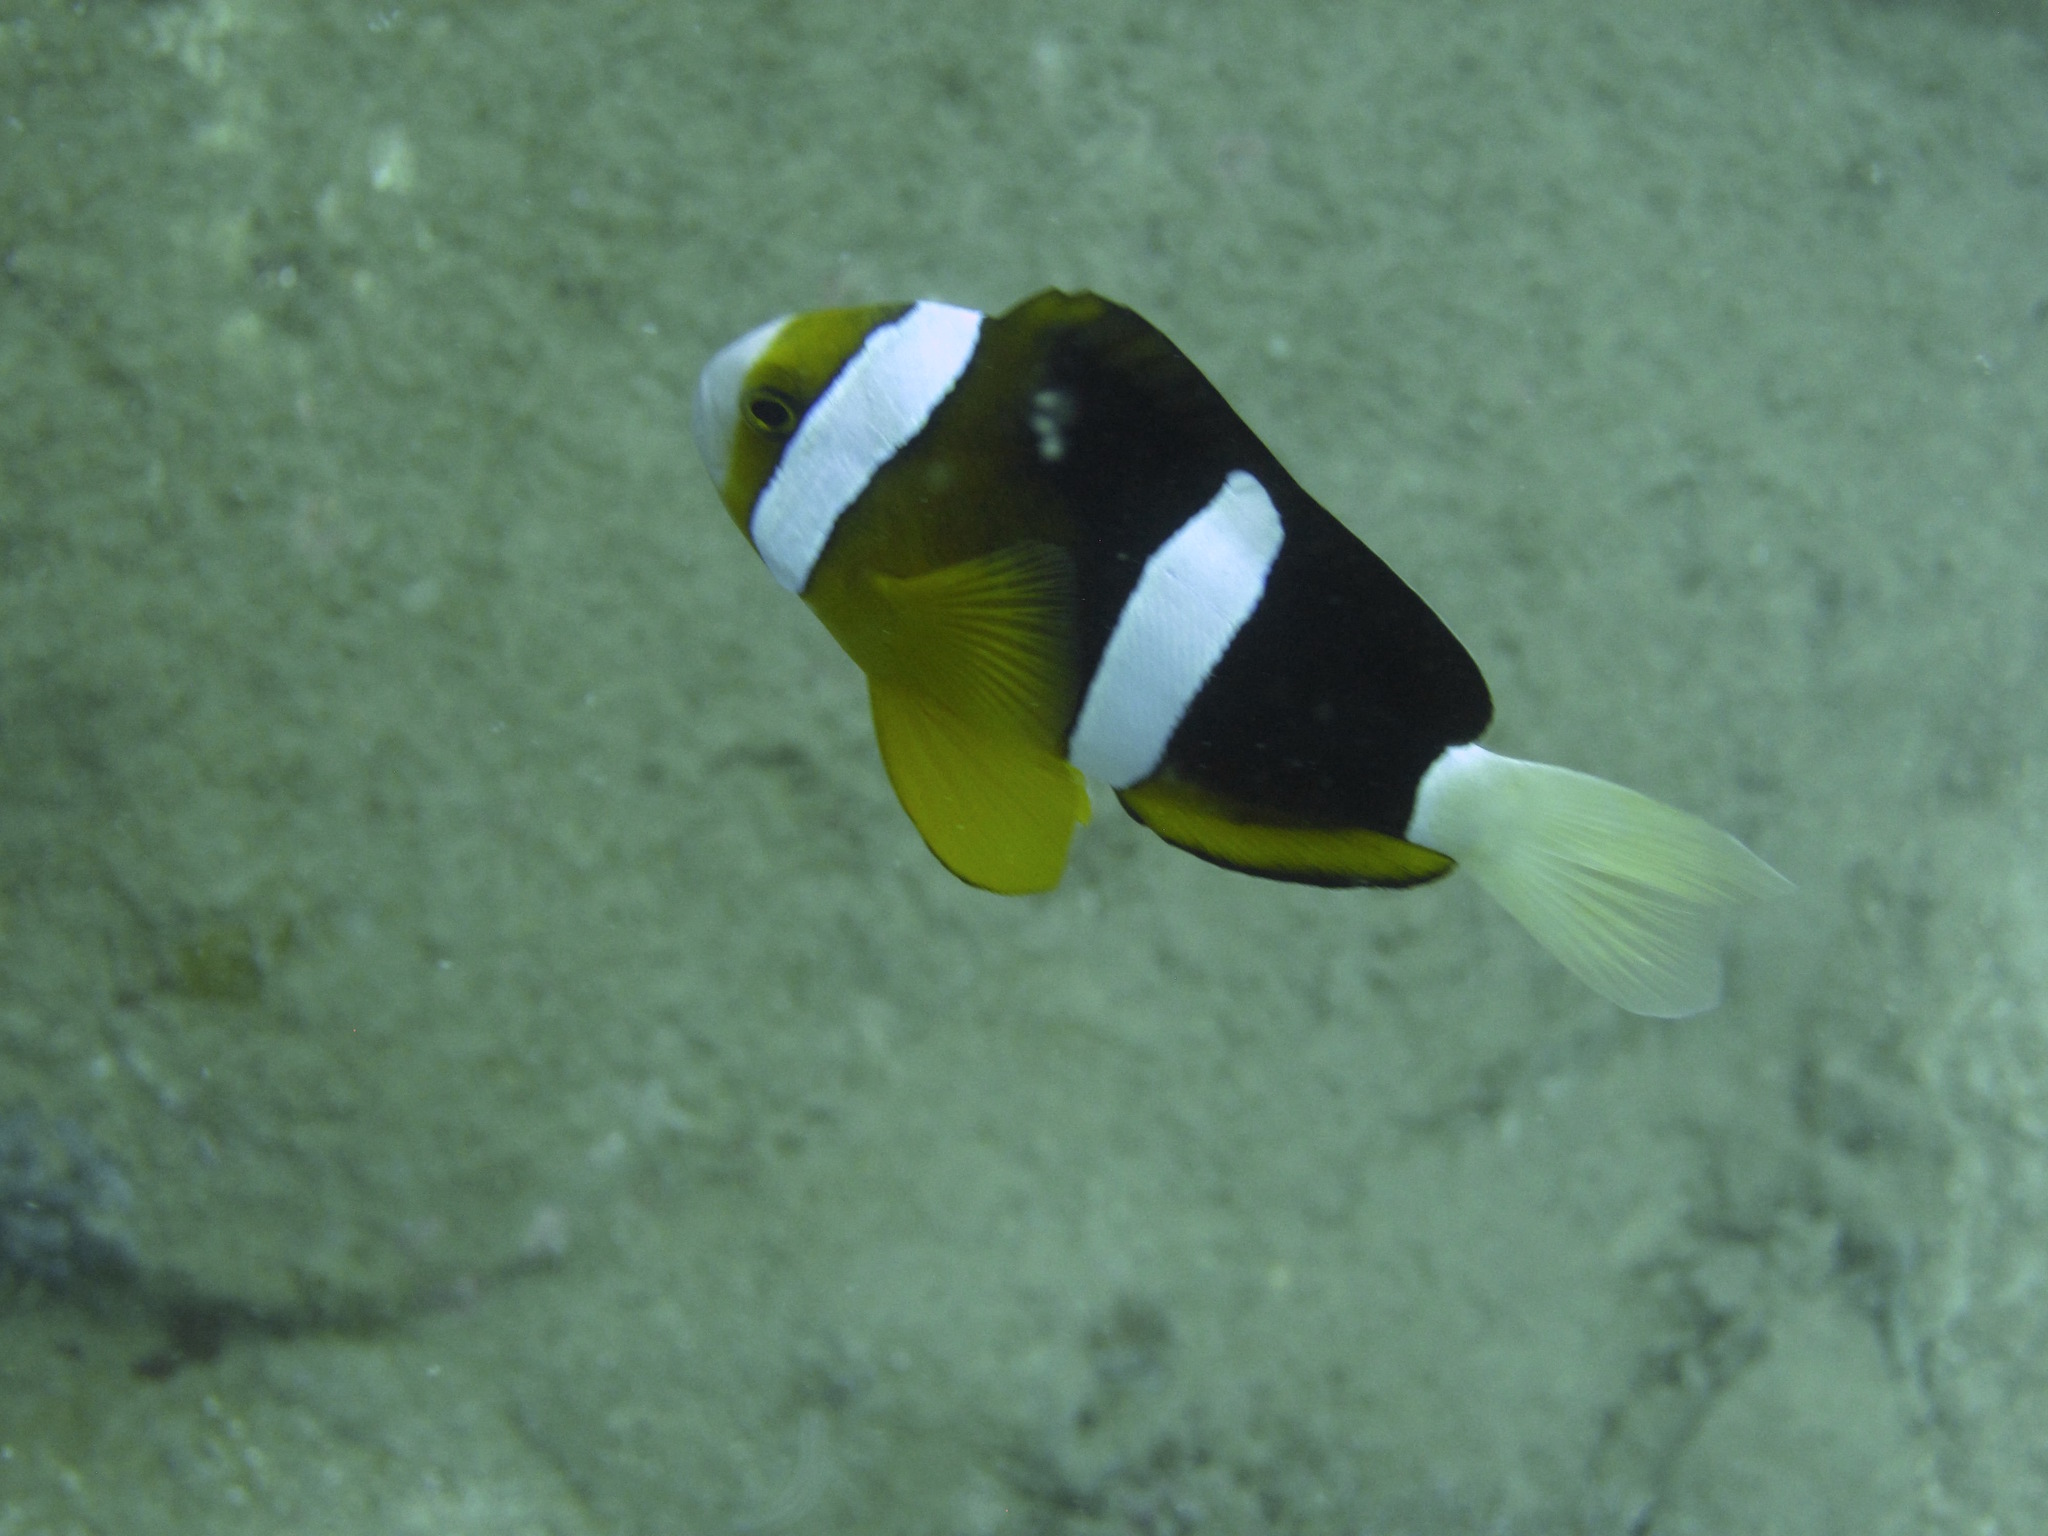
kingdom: Animalia
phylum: Chordata
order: Perciformes
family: Pomacentridae
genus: Amphiprion
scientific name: Amphiprion clarkii
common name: Clark's anemonefish
